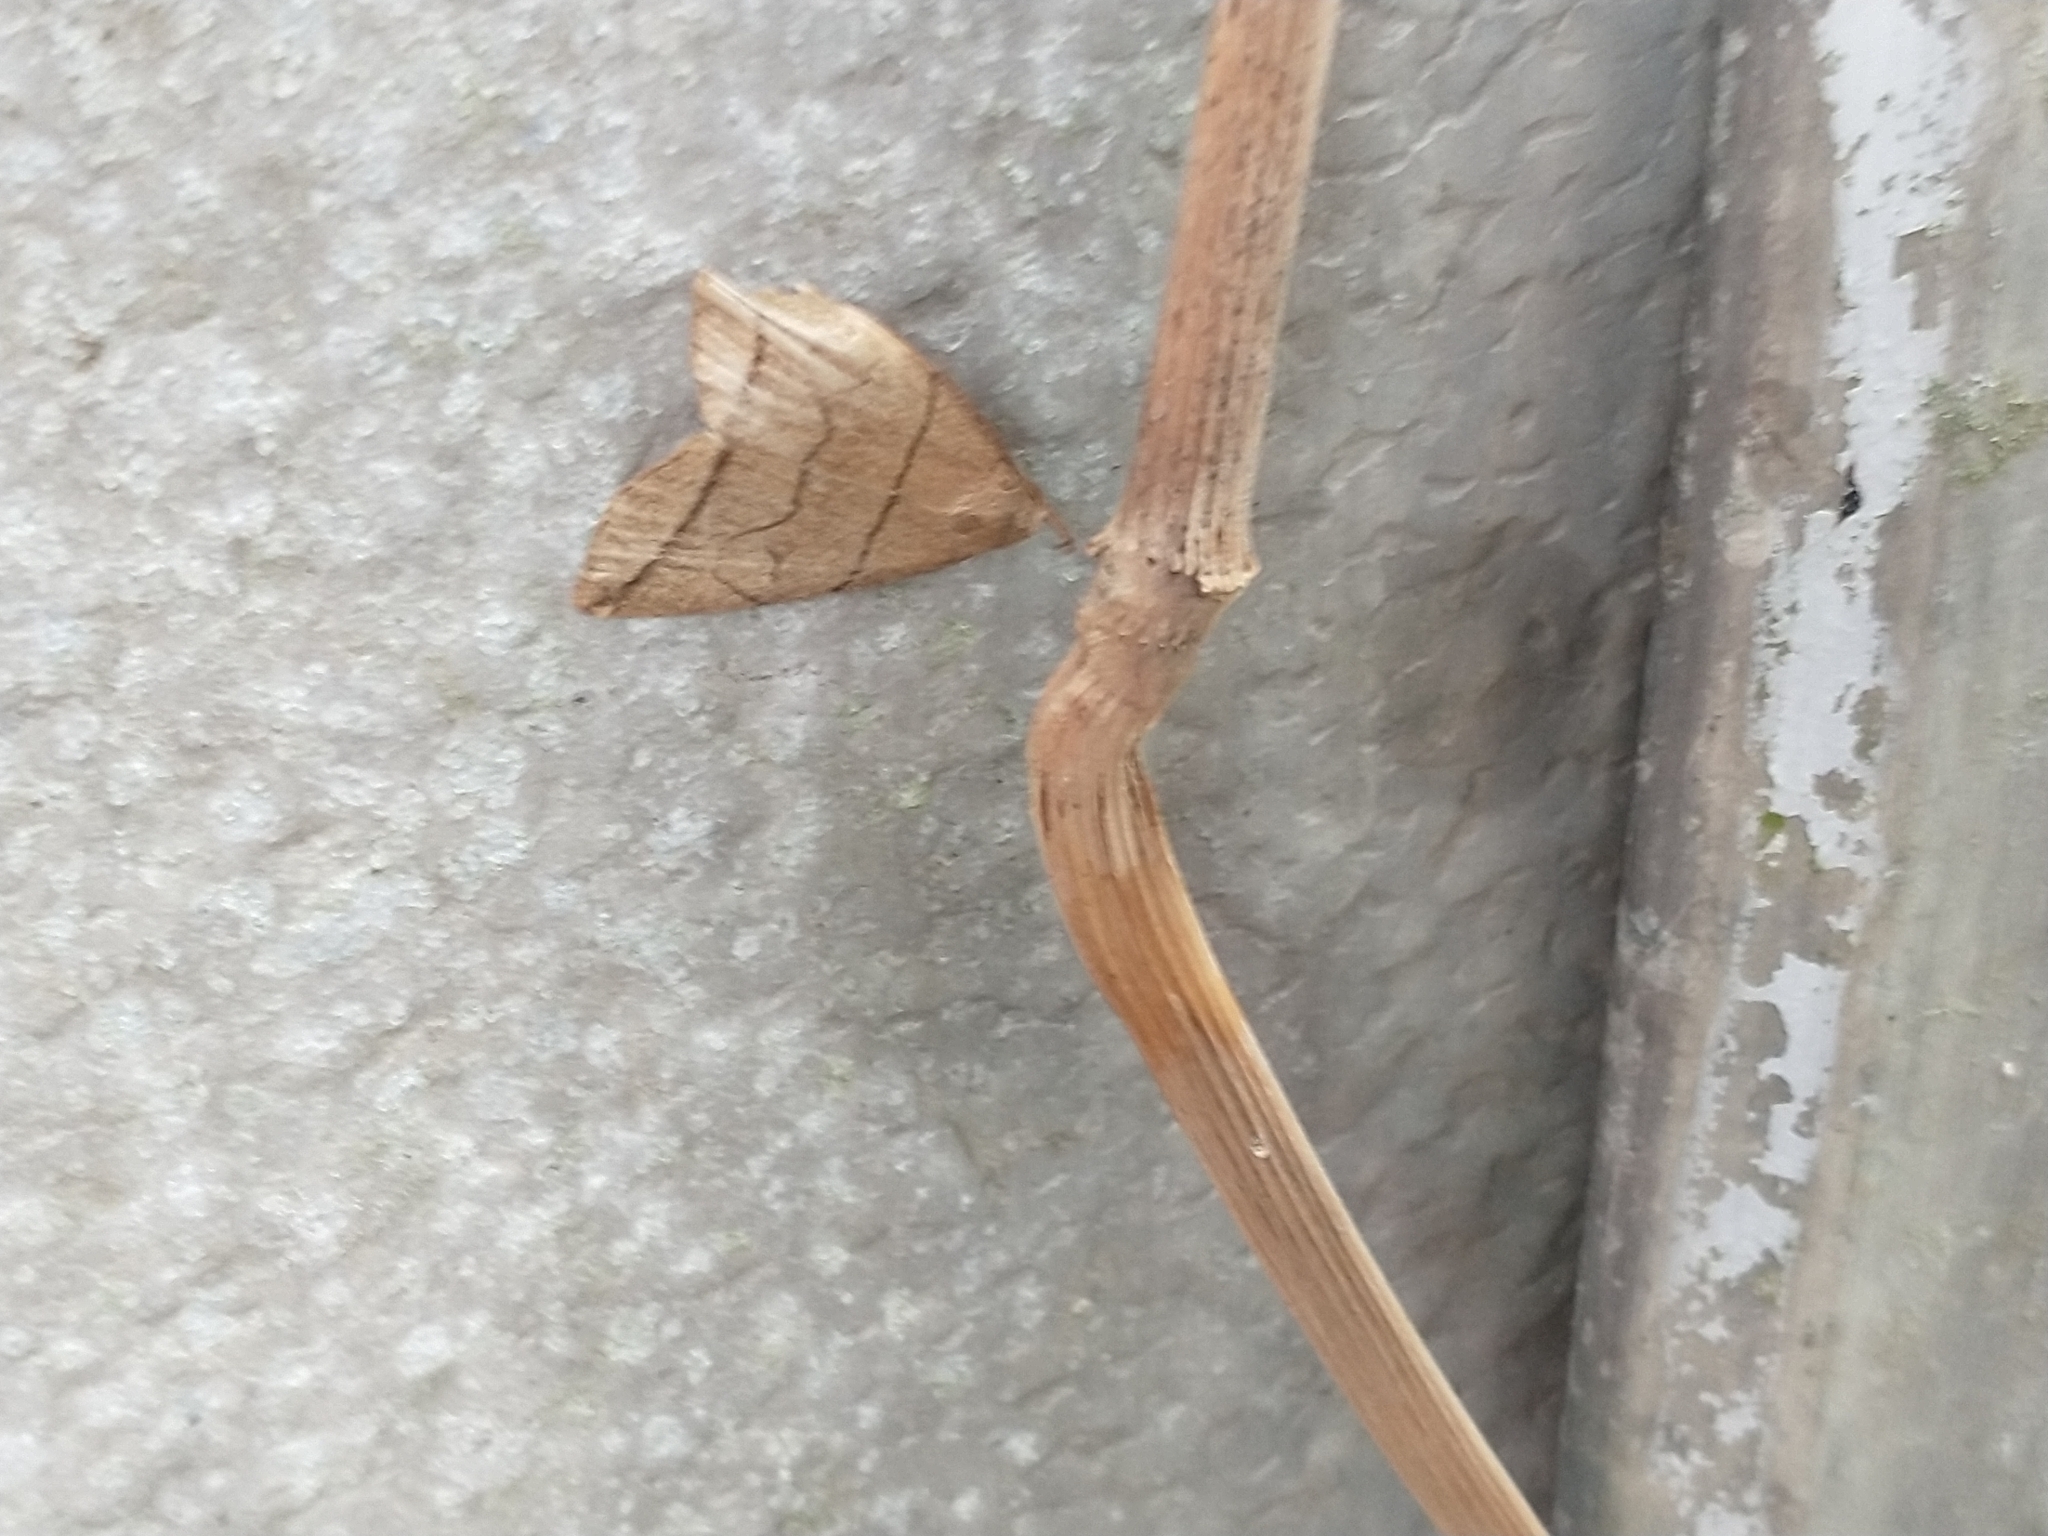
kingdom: Animalia
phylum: Arthropoda
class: Insecta
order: Lepidoptera
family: Erebidae
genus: Herminia
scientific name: Herminia grisealis
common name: Small fan-foot
